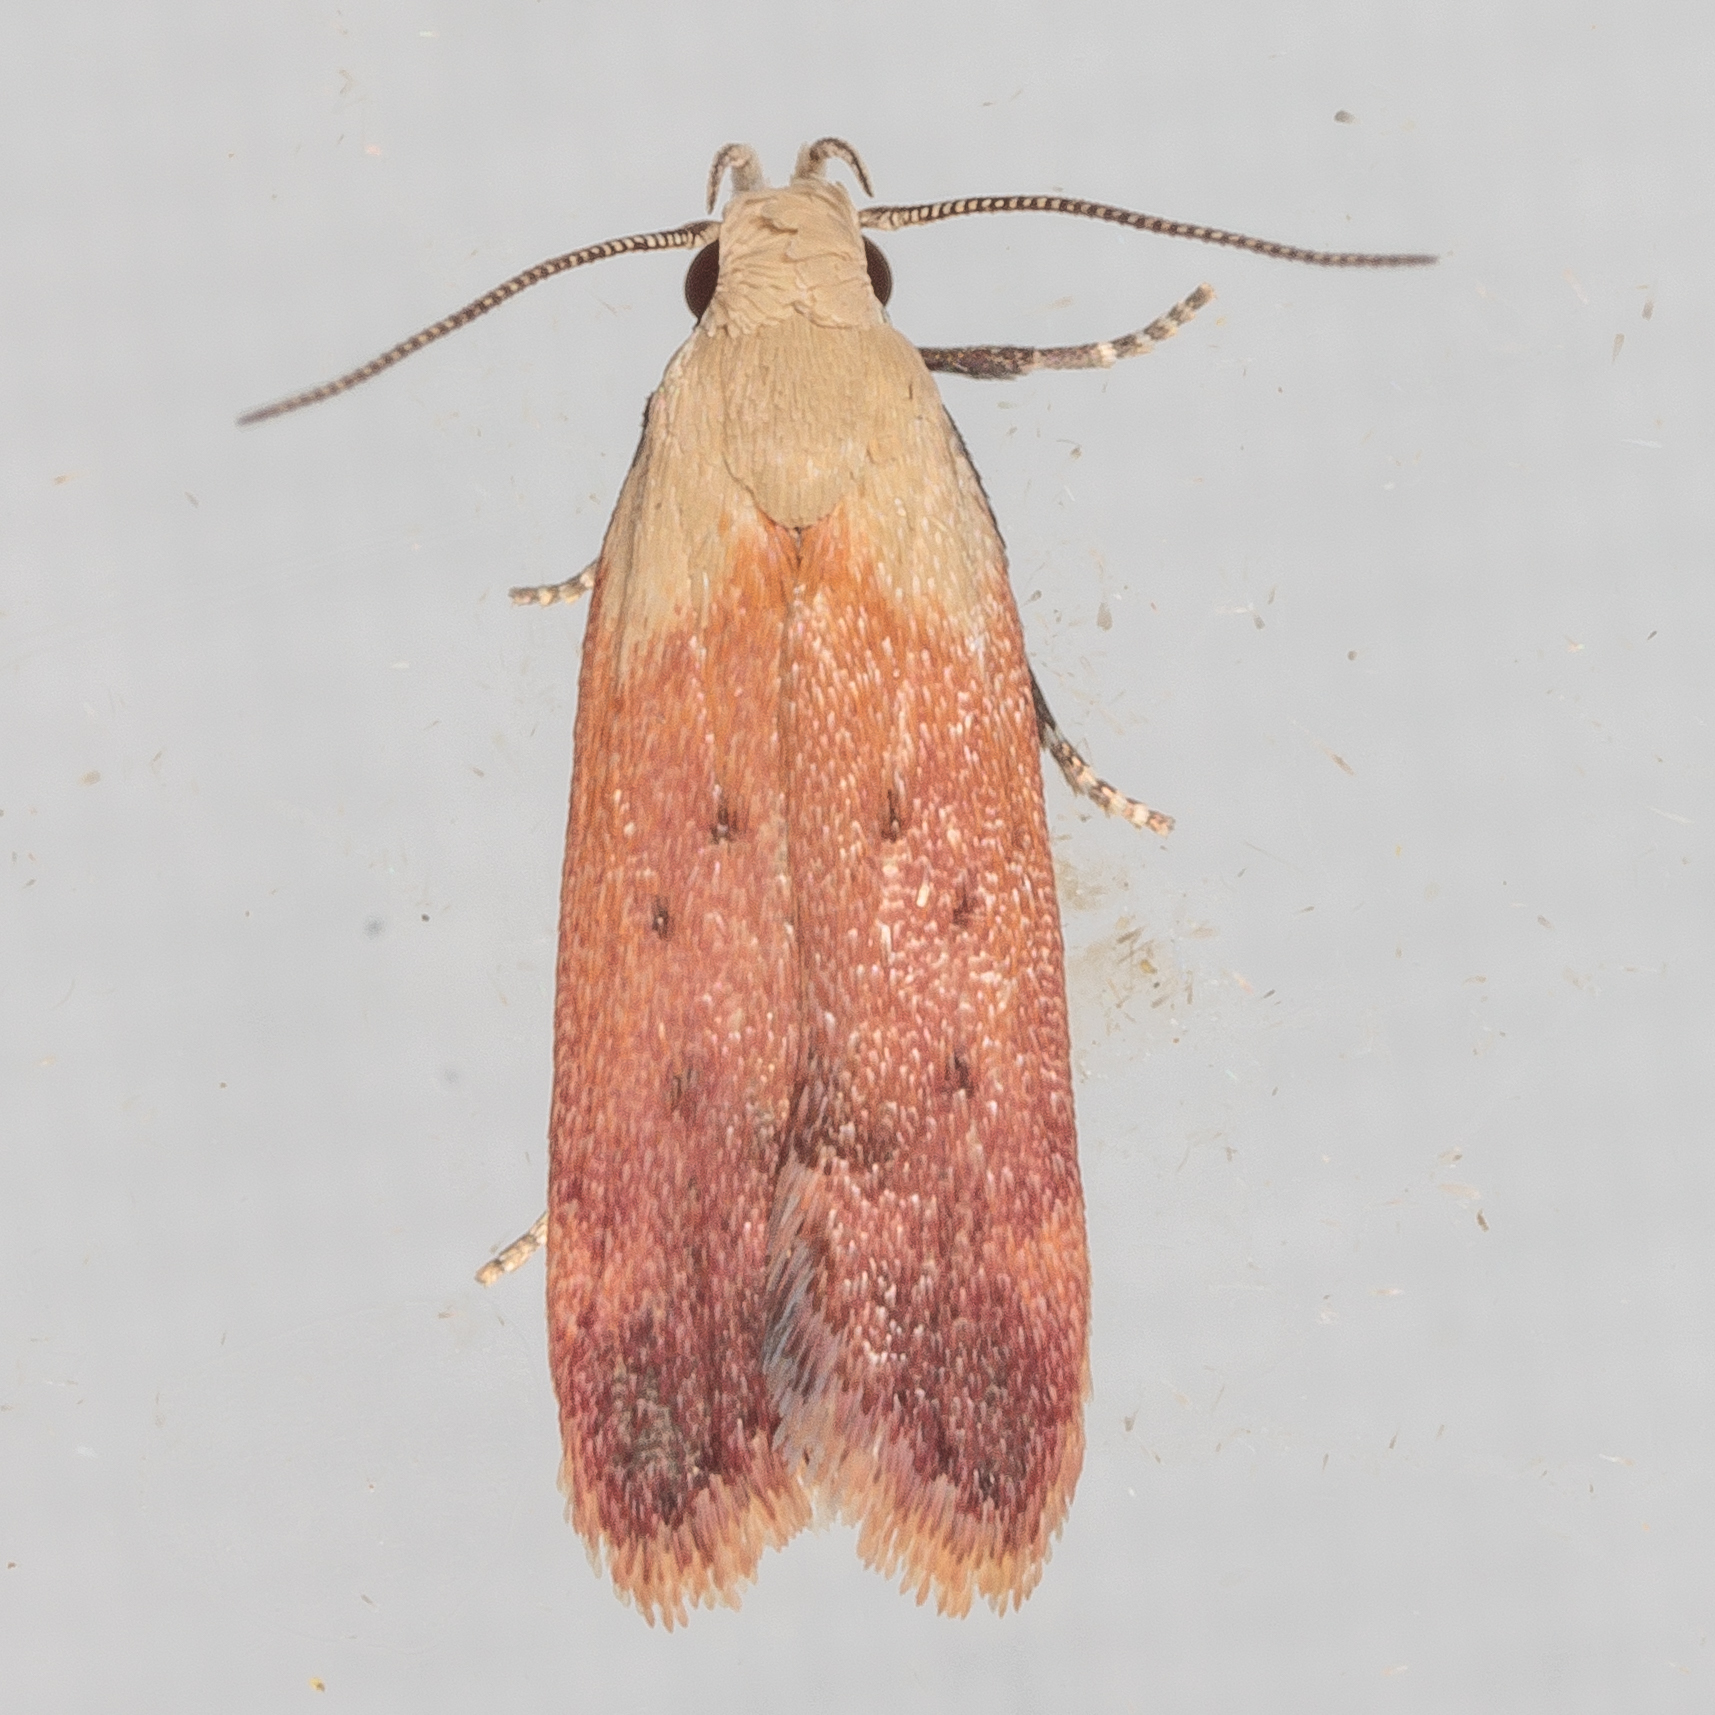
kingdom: Animalia
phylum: Arthropoda
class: Insecta
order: Lepidoptera
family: Gelechiidae
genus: Anacampsis
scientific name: Anacampsis fullonella
